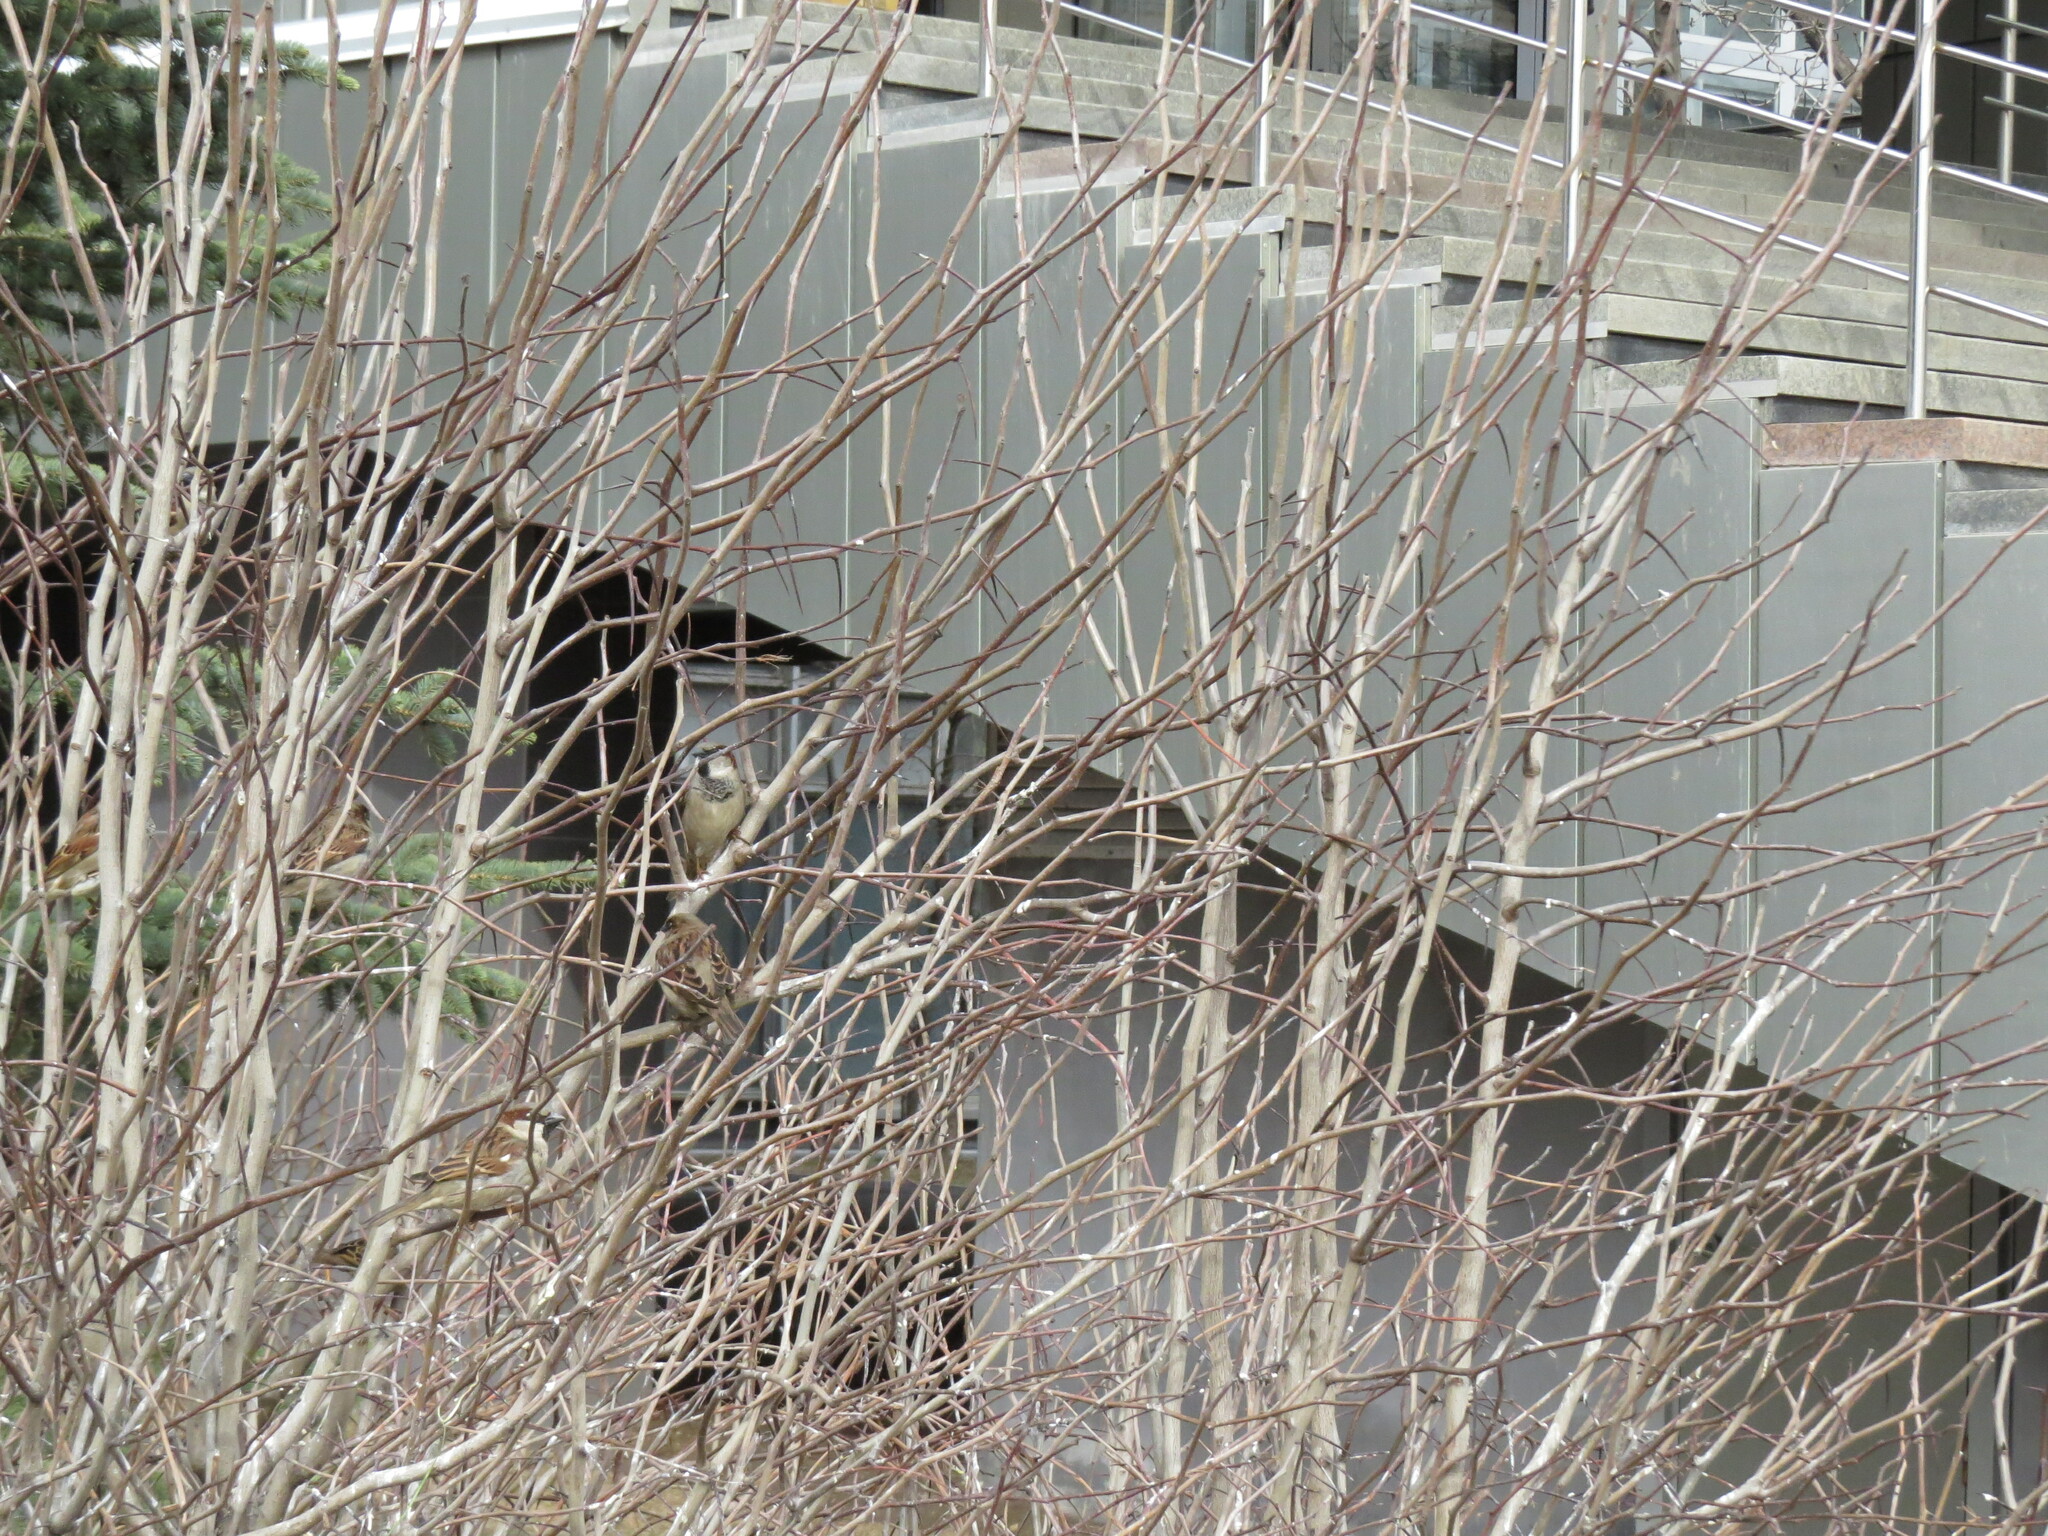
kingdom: Animalia
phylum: Chordata
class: Aves
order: Passeriformes
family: Passeridae
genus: Passer
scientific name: Passer domesticus
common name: House sparrow
